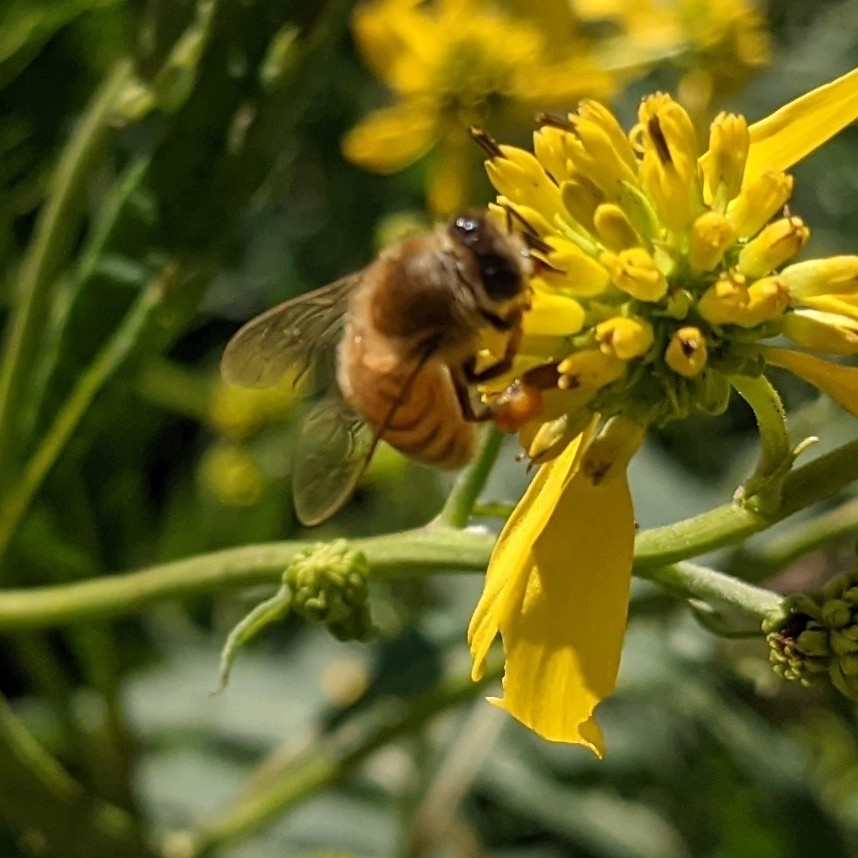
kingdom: Animalia
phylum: Arthropoda
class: Insecta
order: Hymenoptera
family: Apidae
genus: Apis
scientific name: Apis mellifera
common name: Honey bee
